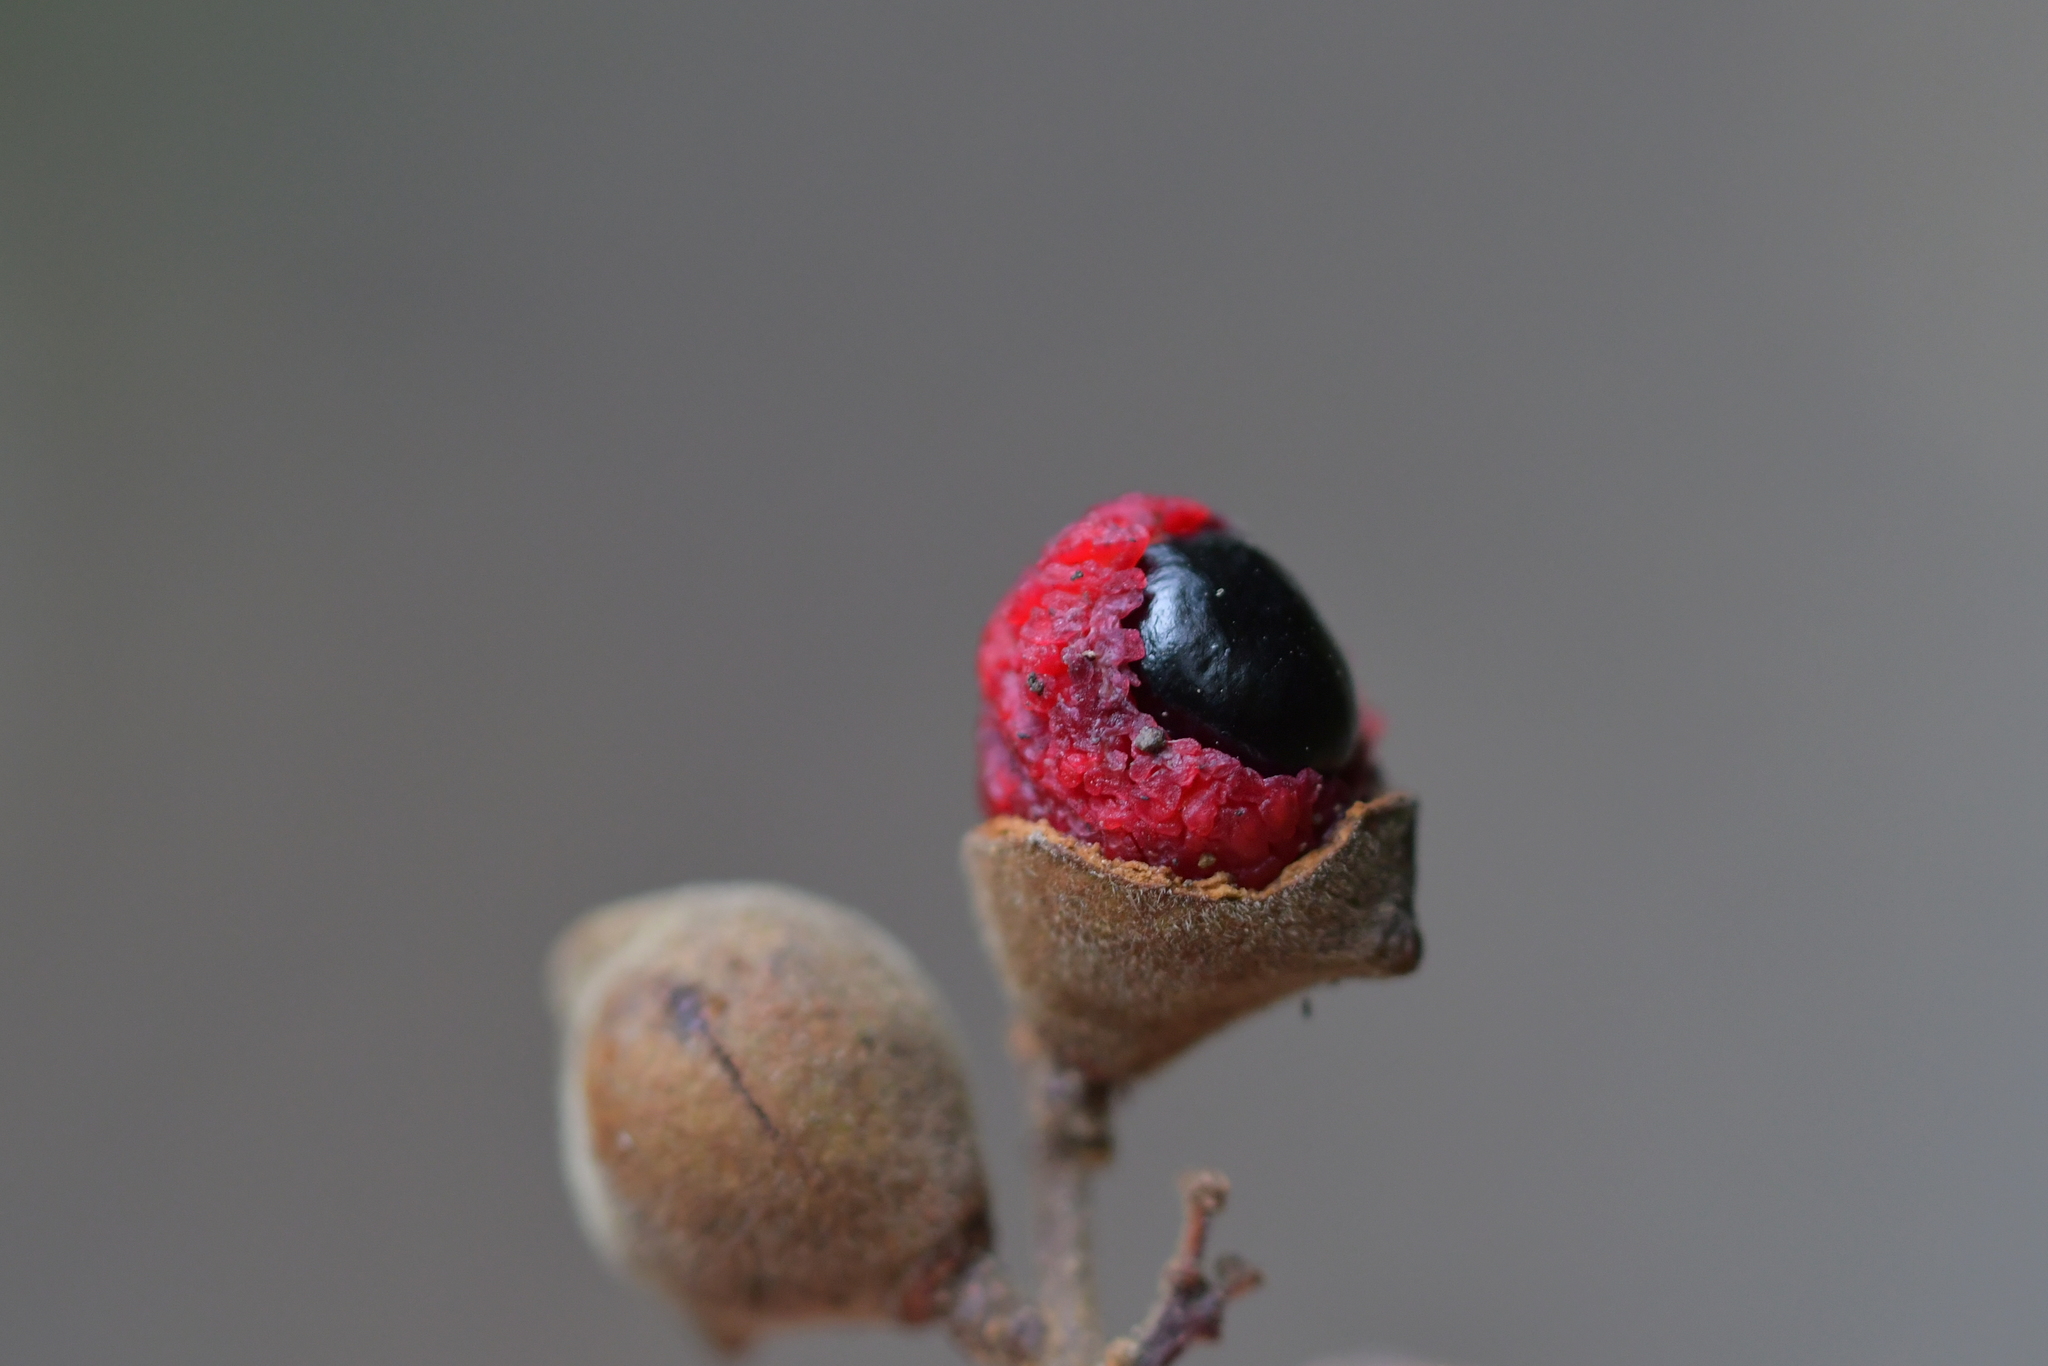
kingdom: Plantae
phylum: Tracheophyta
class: Magnoliopsida
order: Sapindales
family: Sapindaceae
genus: Alectryon
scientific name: Alectryon excelsus
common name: Three kings titoki
